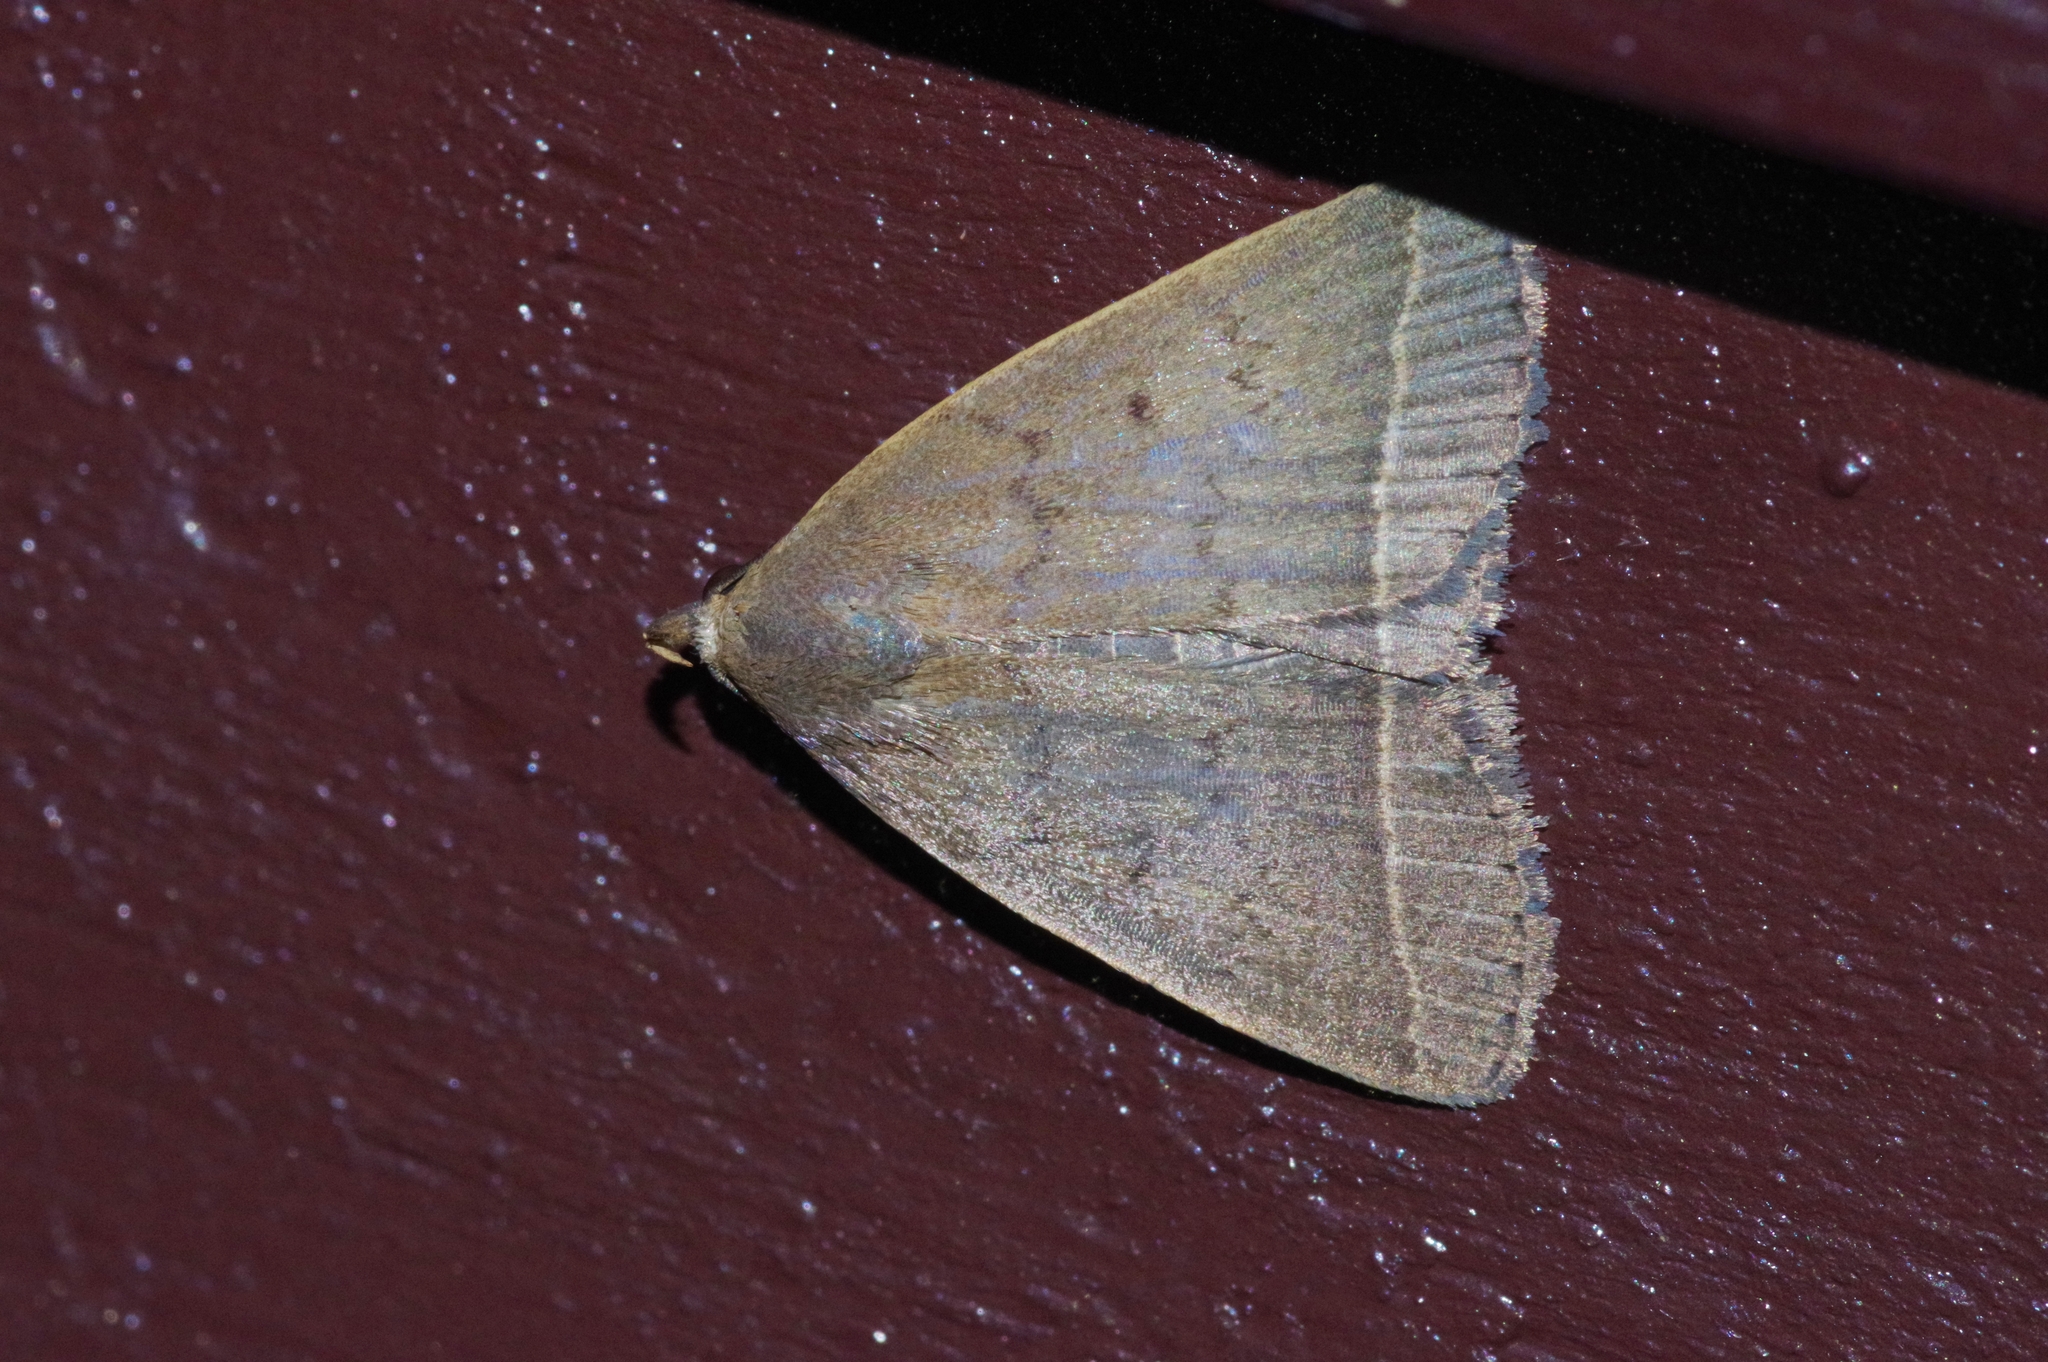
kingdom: Animalia
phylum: Arthropoda
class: Insecta
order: Lepidoptera
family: Erebidae
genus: Simplicia
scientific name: Simplicia xanthoma
